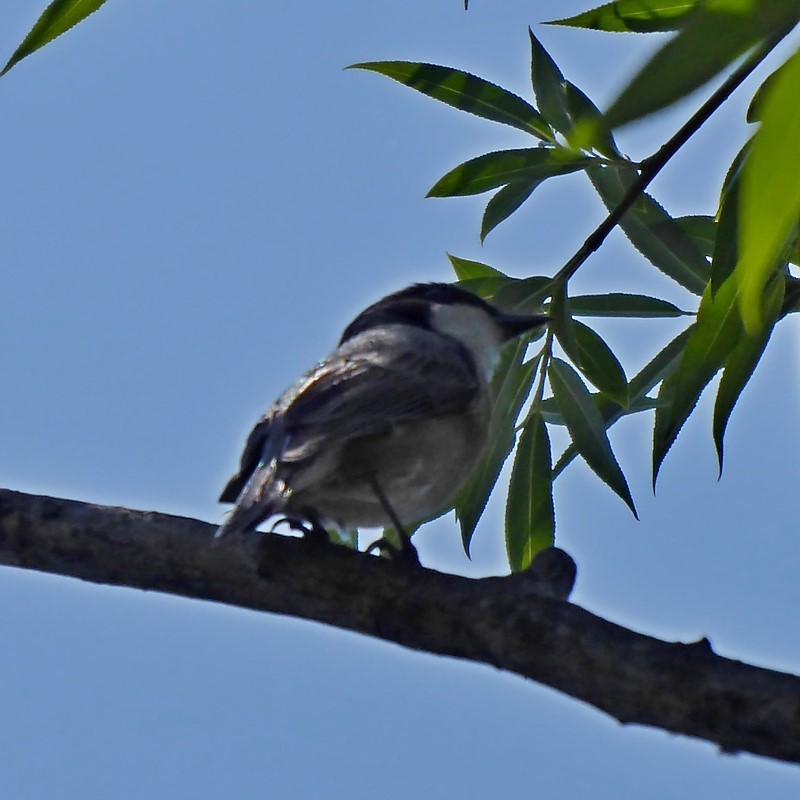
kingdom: Animalia
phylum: Chordata
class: Aves
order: Passeriformes
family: Pachycephalidae
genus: Pachycephala
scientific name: Pachycephala rufiventris
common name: Rufous whistler
